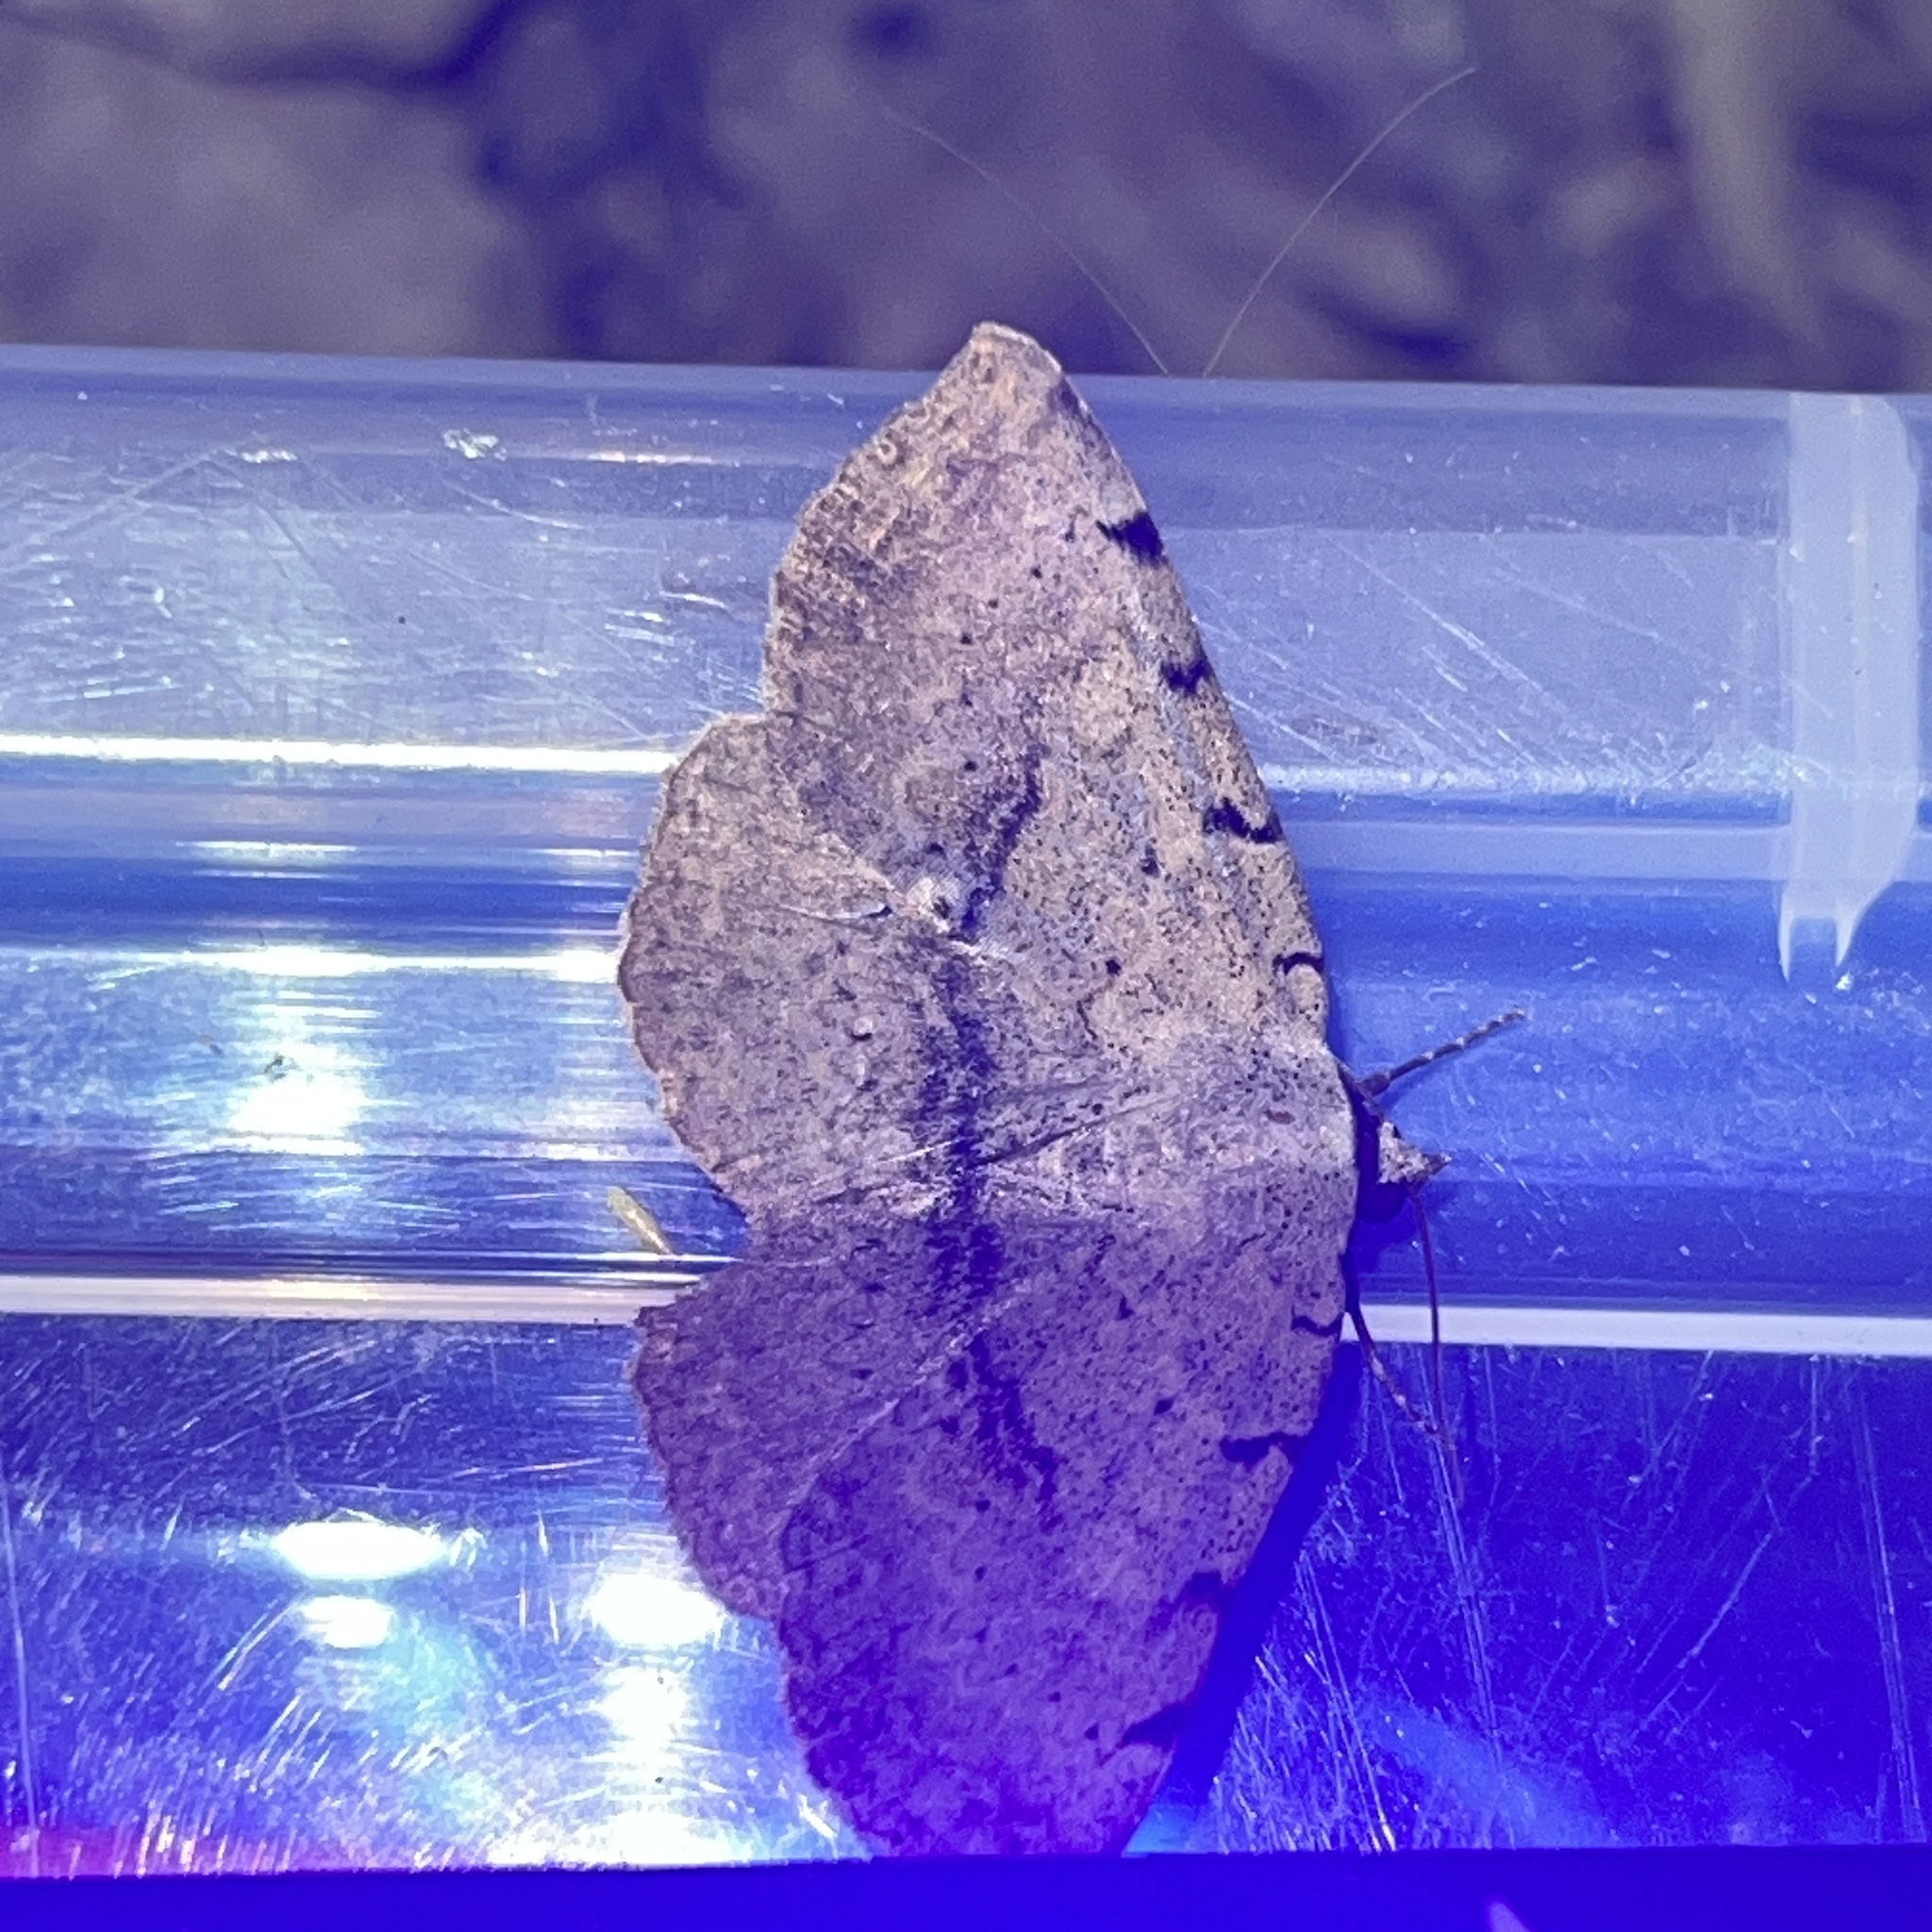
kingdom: Animalia
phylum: Arthropoda
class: Insecta
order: Lepidoptera
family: Erebidae
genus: Spiloloma
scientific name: Spiloloma lunilinea
